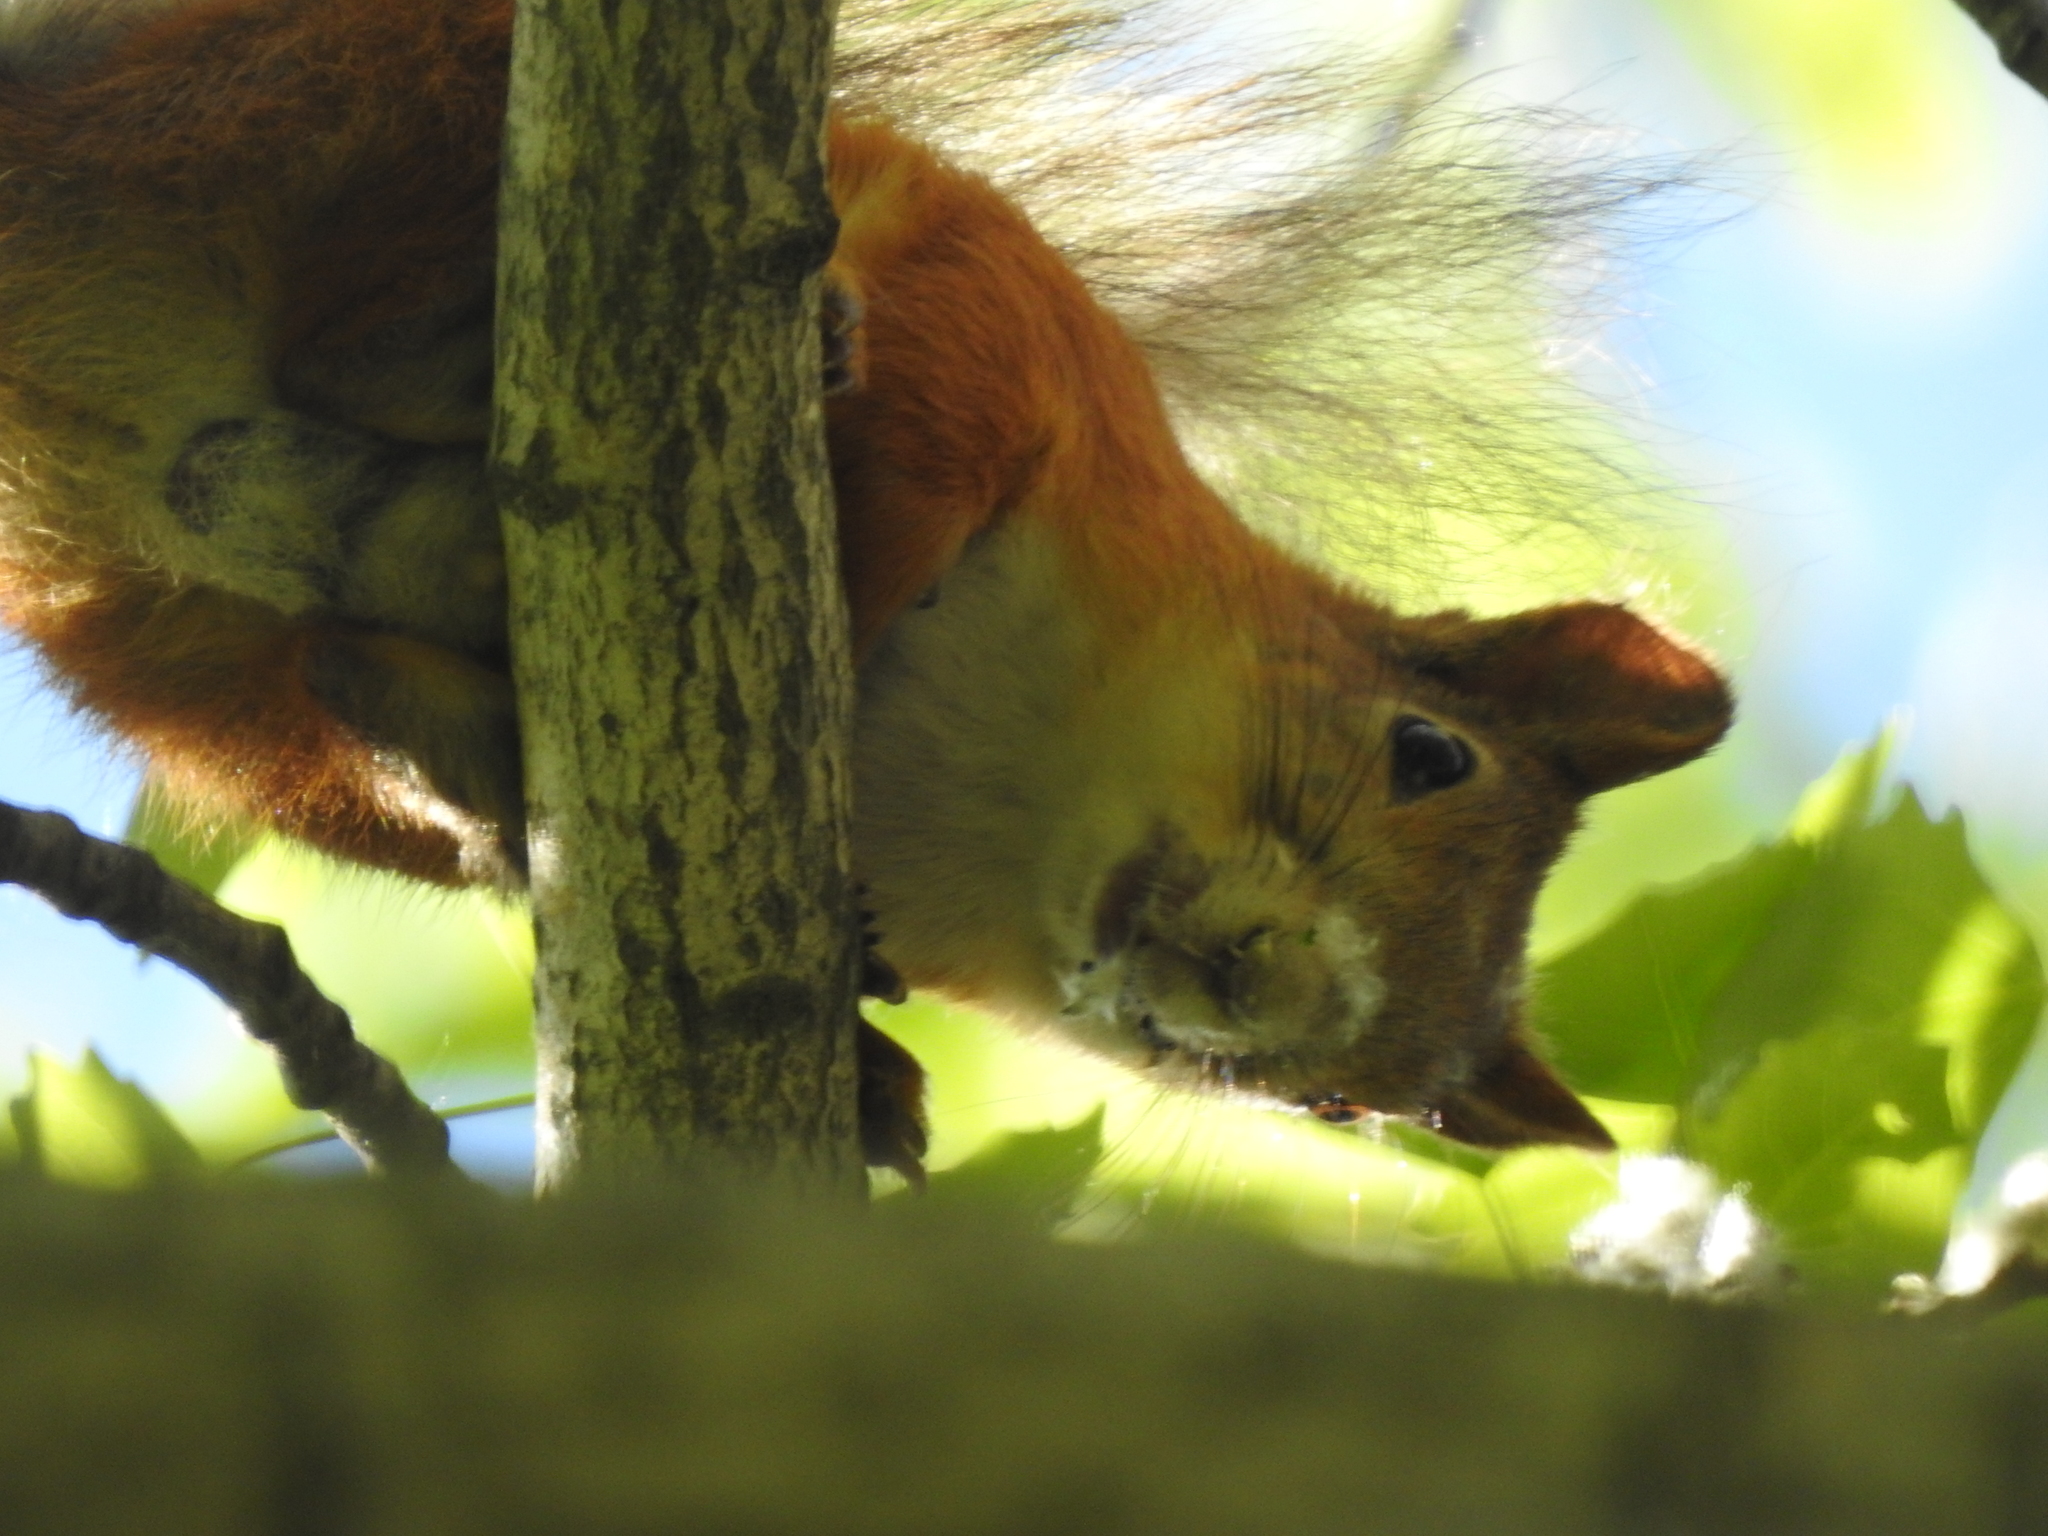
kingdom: Animalia
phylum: Chordata
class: Mammalia
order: Rodentia
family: Sciuridae
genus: Sciurus
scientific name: Sciurus vulgaris
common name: Eurasian red squirrel
